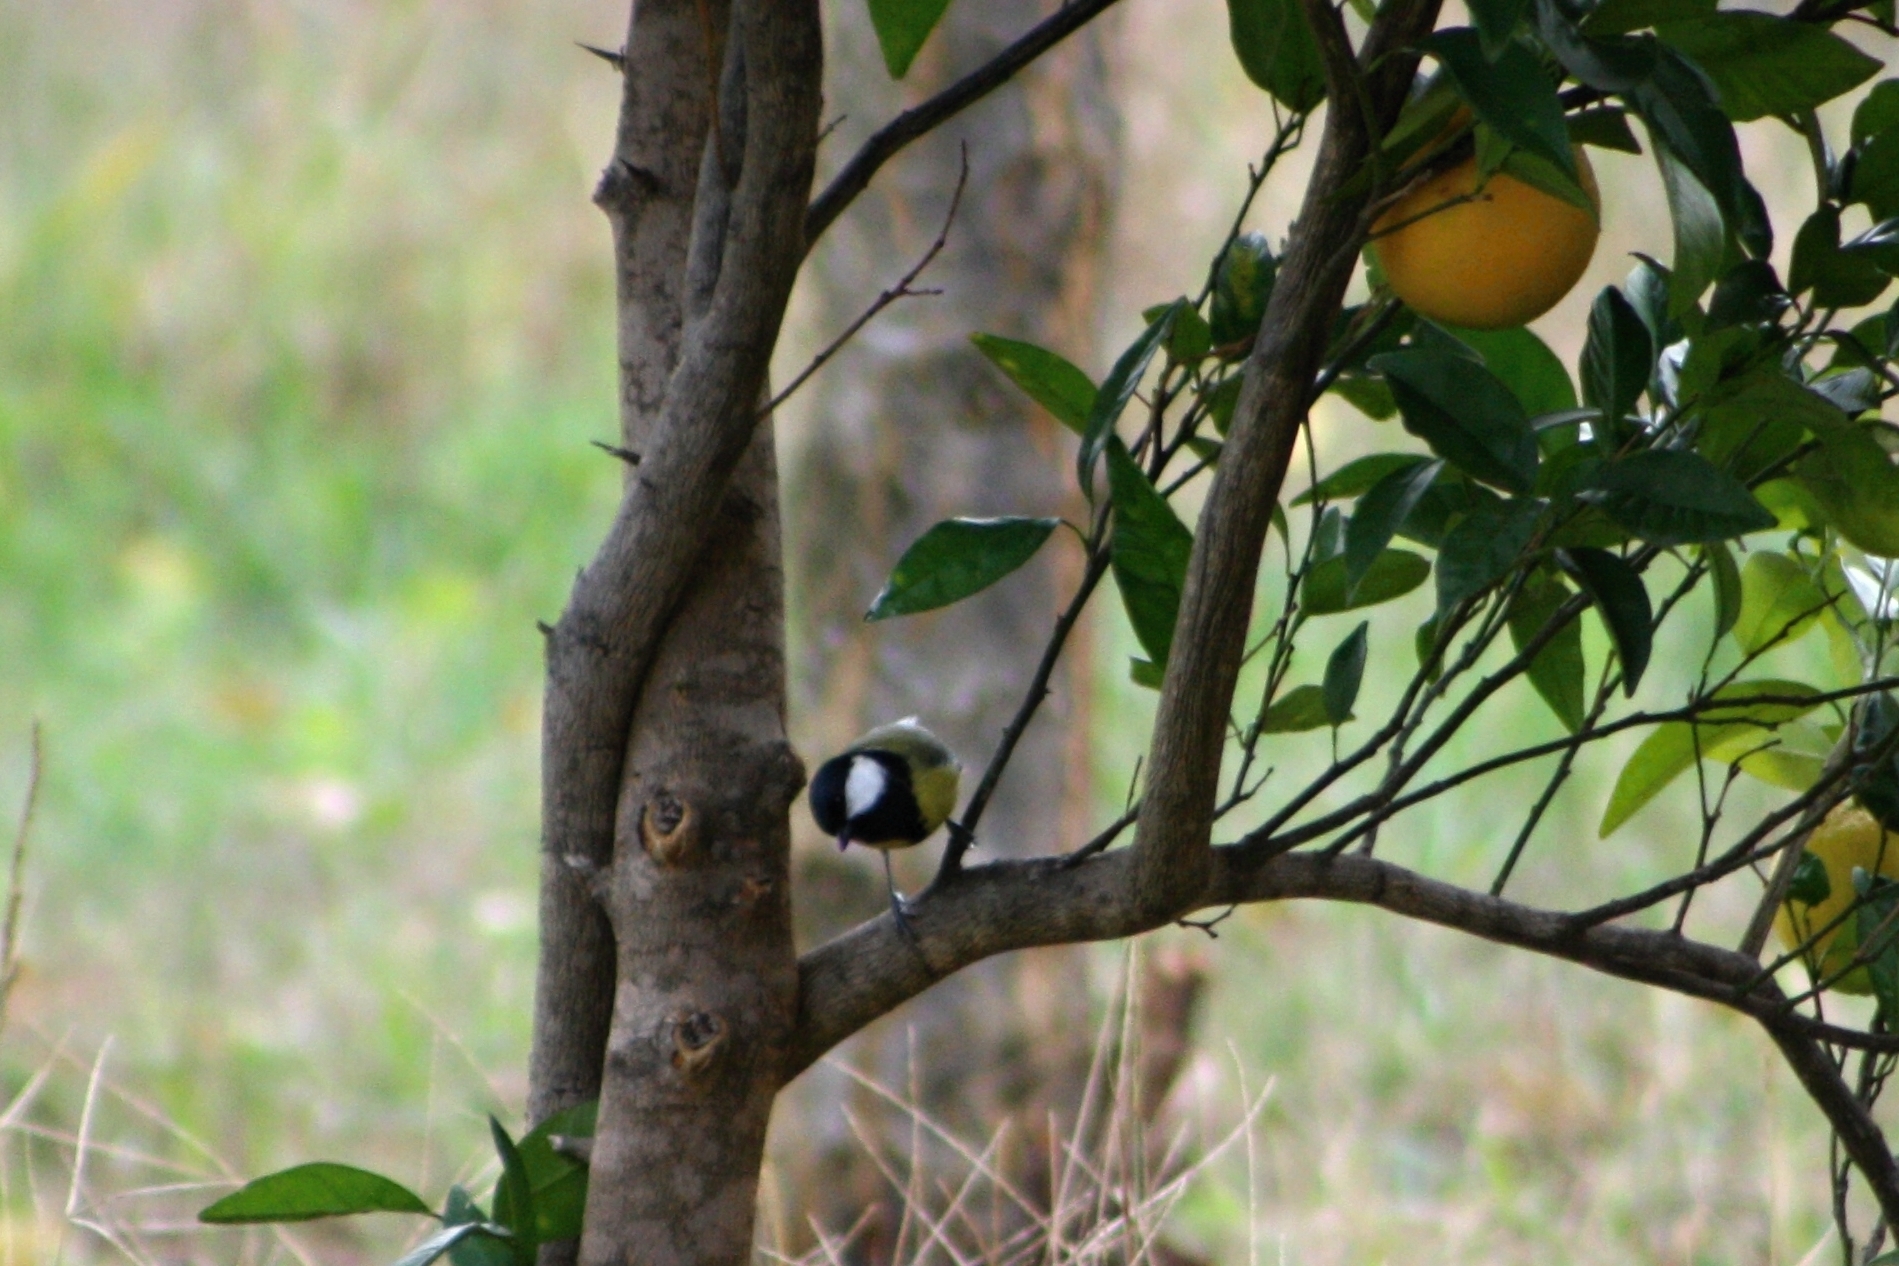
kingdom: Animalia
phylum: Chordata
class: Aves
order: Passeriformes
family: Paridae
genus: Parus
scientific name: Parus major
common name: Great tit
